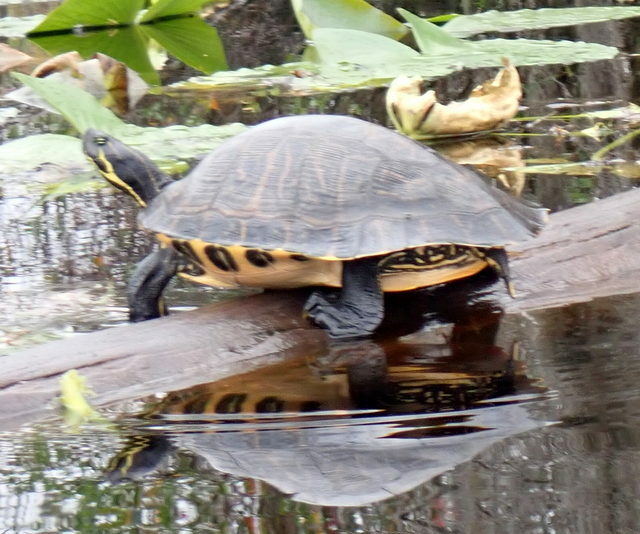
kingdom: Animalia
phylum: Chordata
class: Testudines
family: Emydidae
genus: Pseudemys
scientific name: Pseudemys concinna
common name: Eastern river cooter
